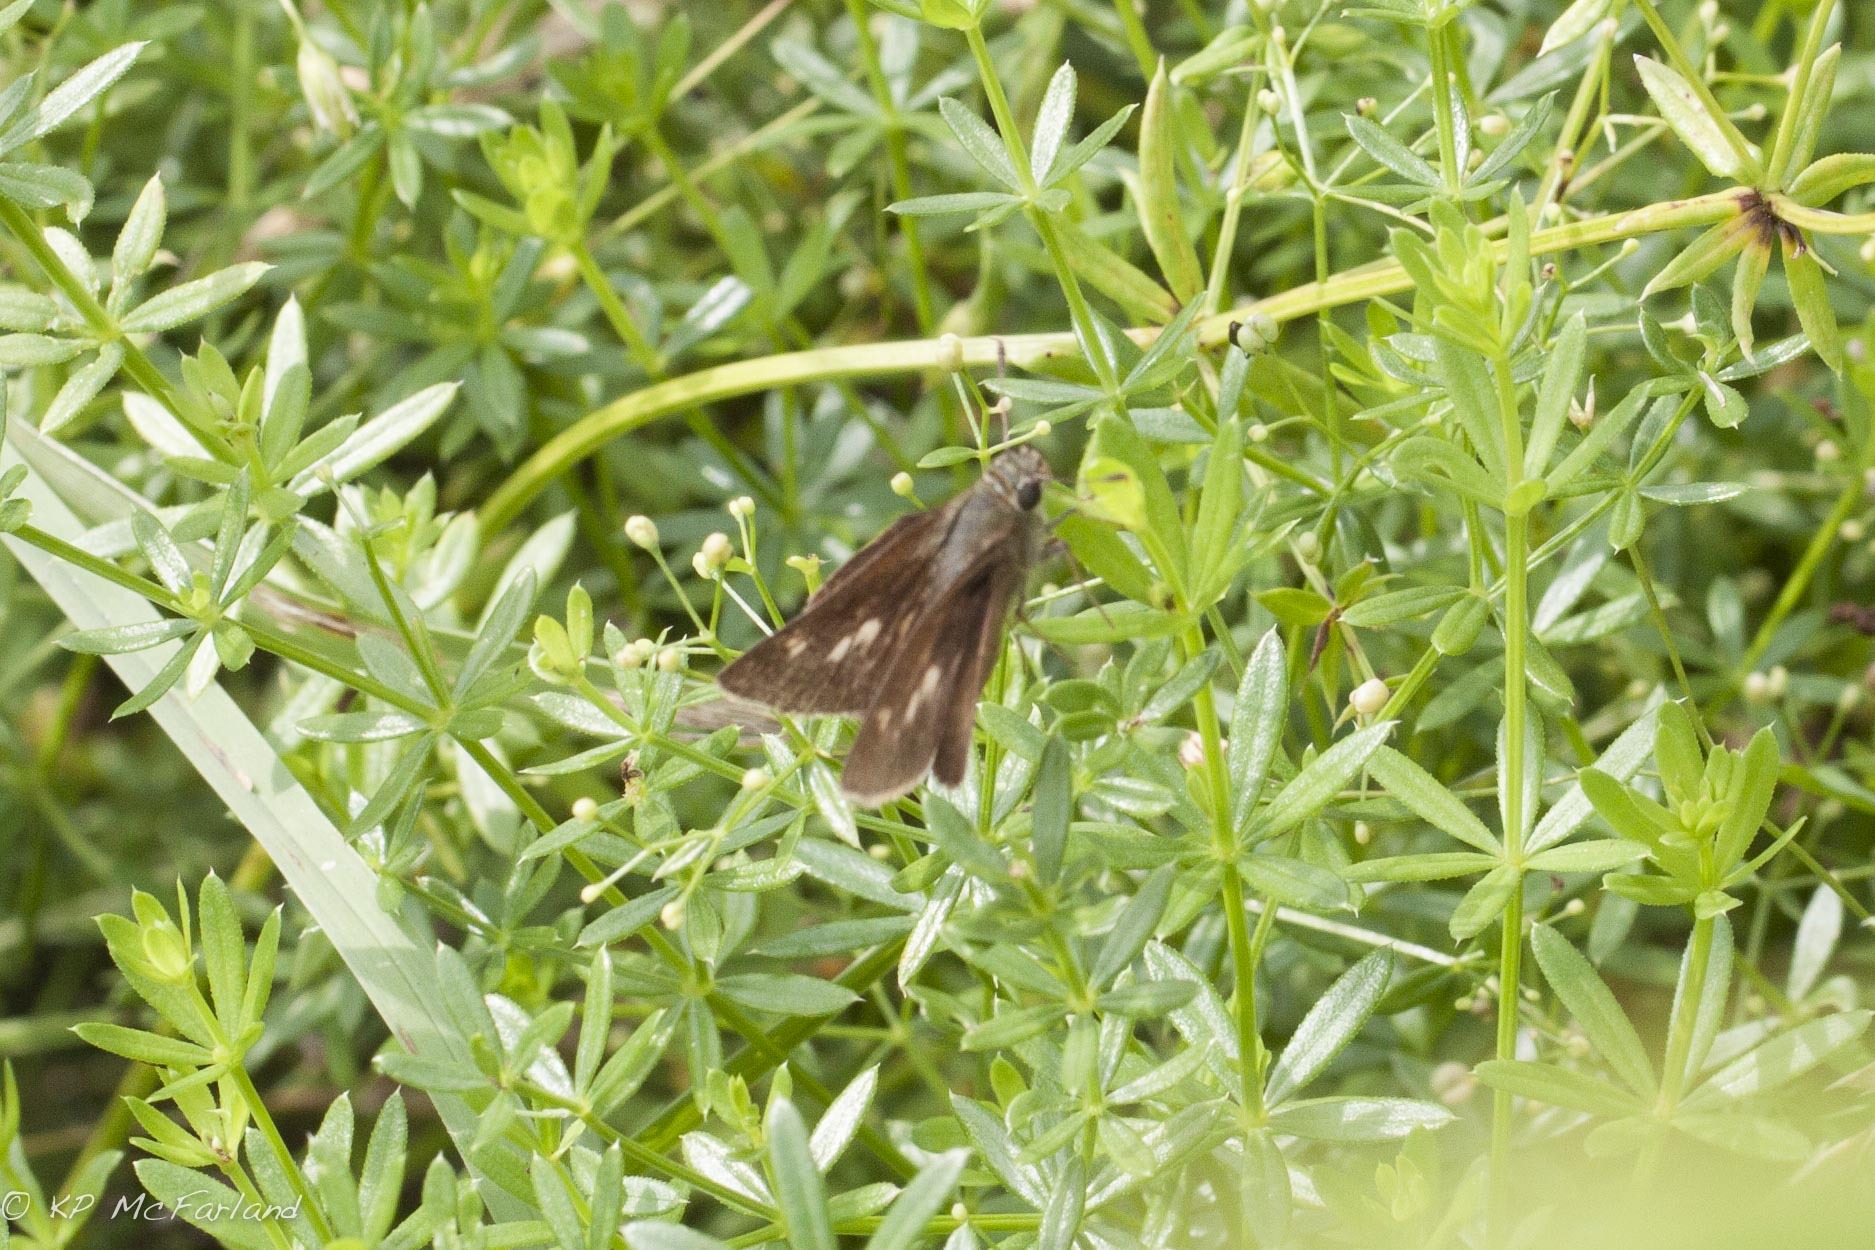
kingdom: Animalia
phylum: Arthropoda
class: Insecta
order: Lepidoptera
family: Hesperiidae
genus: Polites
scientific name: Polites egeremet
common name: Northern broken-dash
